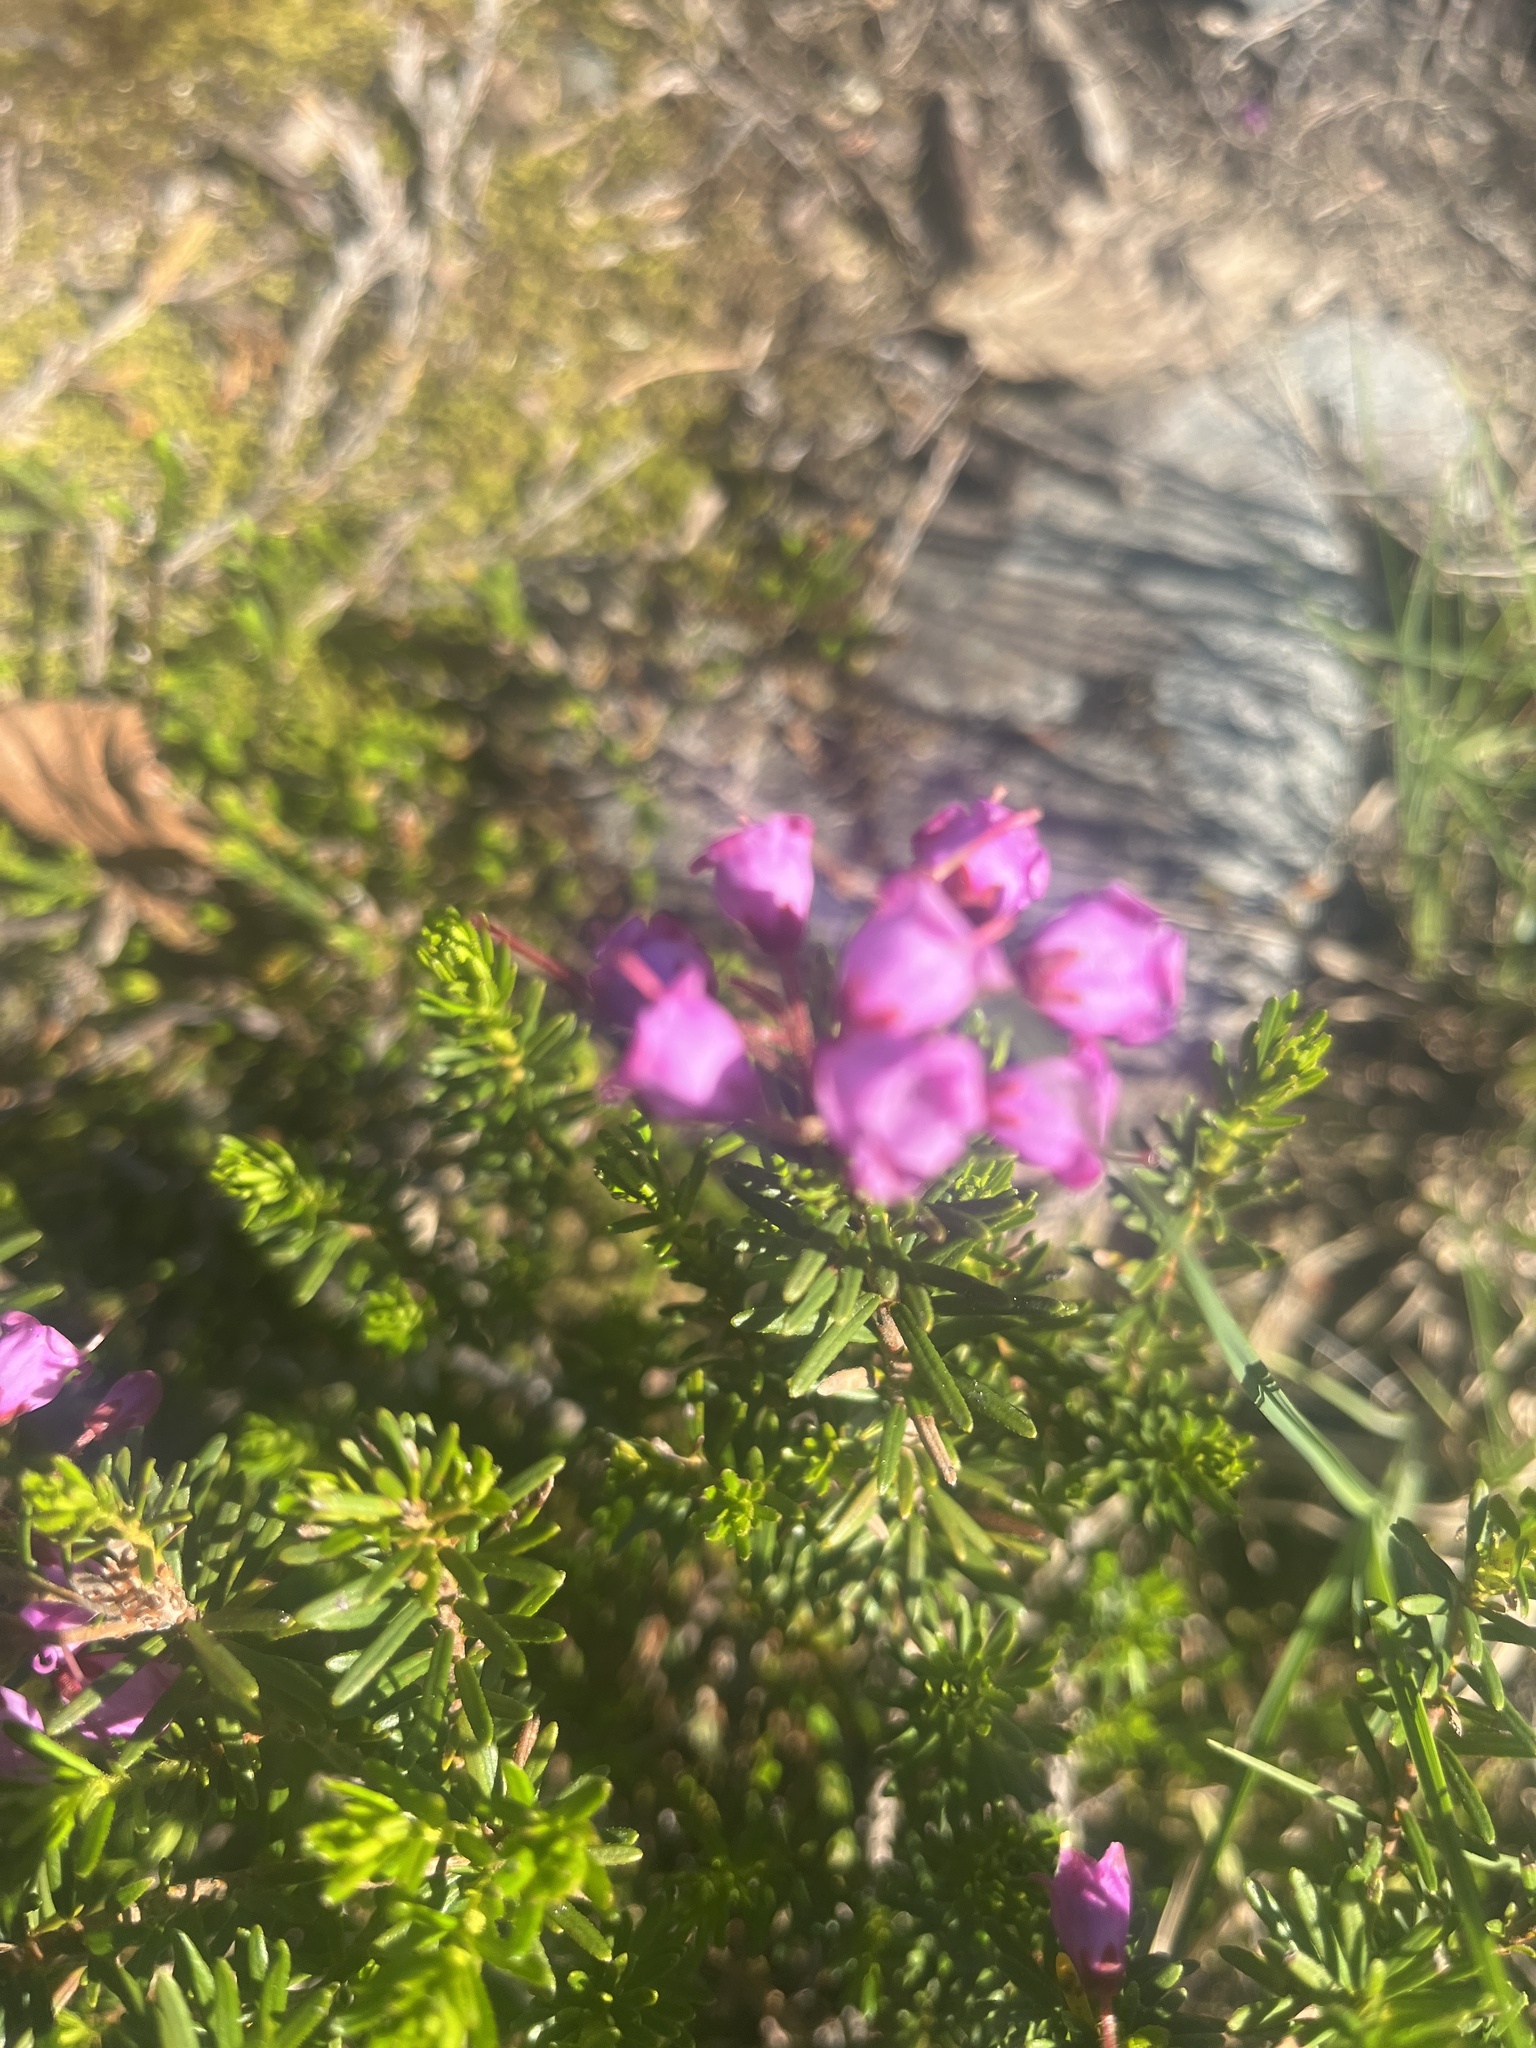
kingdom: Plantae
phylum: Tracheophyta
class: Magnoliopsida
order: Ericales
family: Ericaceae
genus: Phyllodoce
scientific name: Phyllodoce empetriformis
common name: Pink mountain heather
